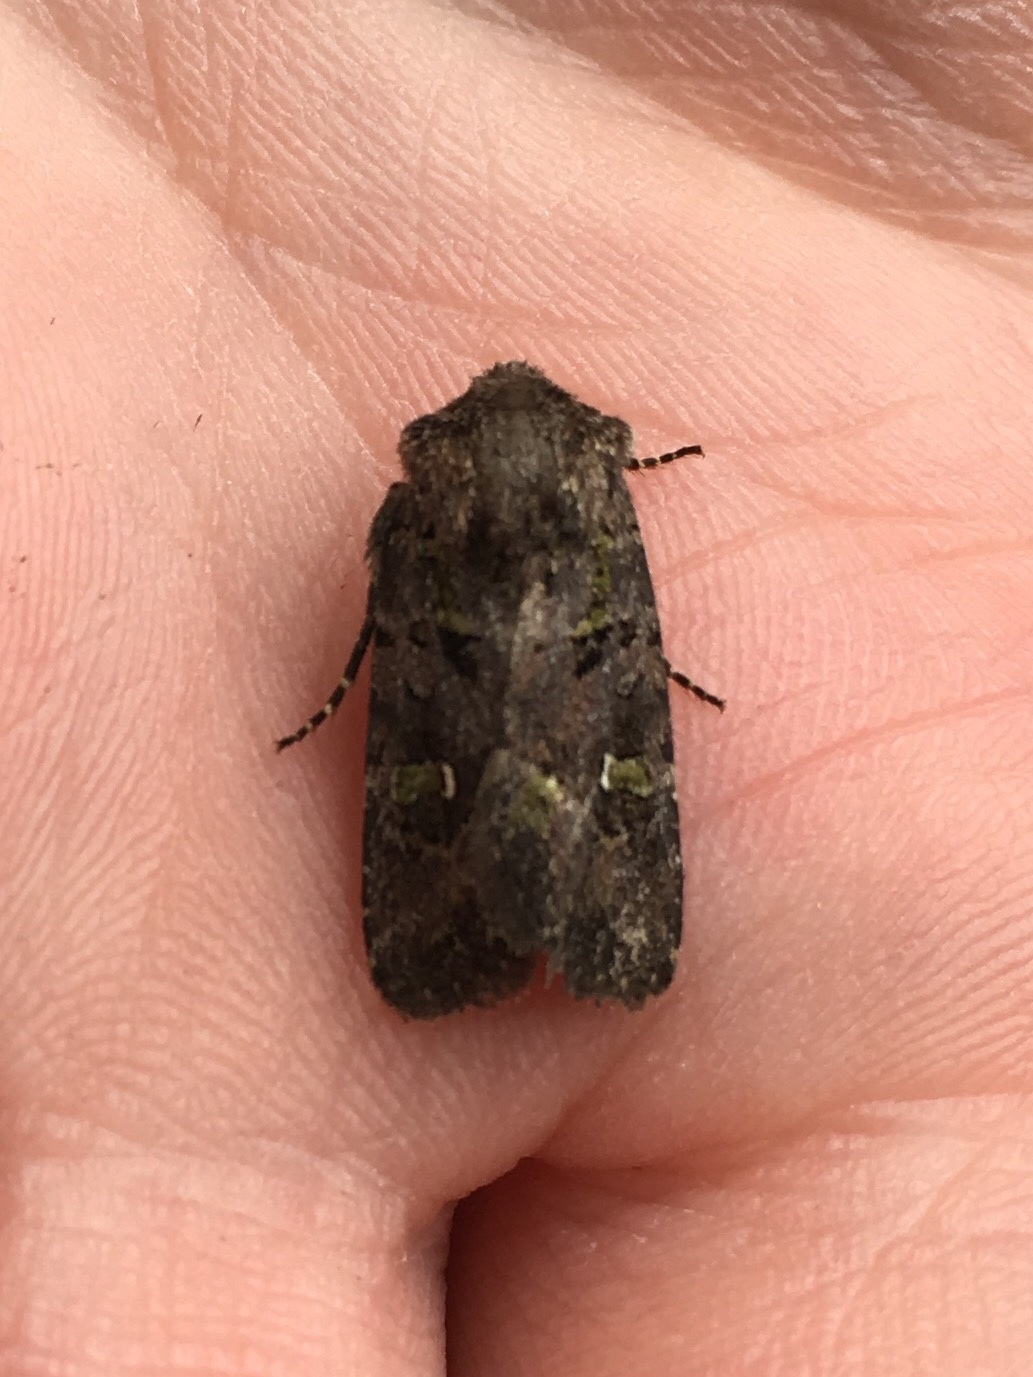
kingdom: Animalia
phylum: Arthropoda
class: Insecta
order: Lepidoptera
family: Noctuidae
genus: Lacinipolia
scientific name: Lacinipolia renigera
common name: Kidney-spotted minor
